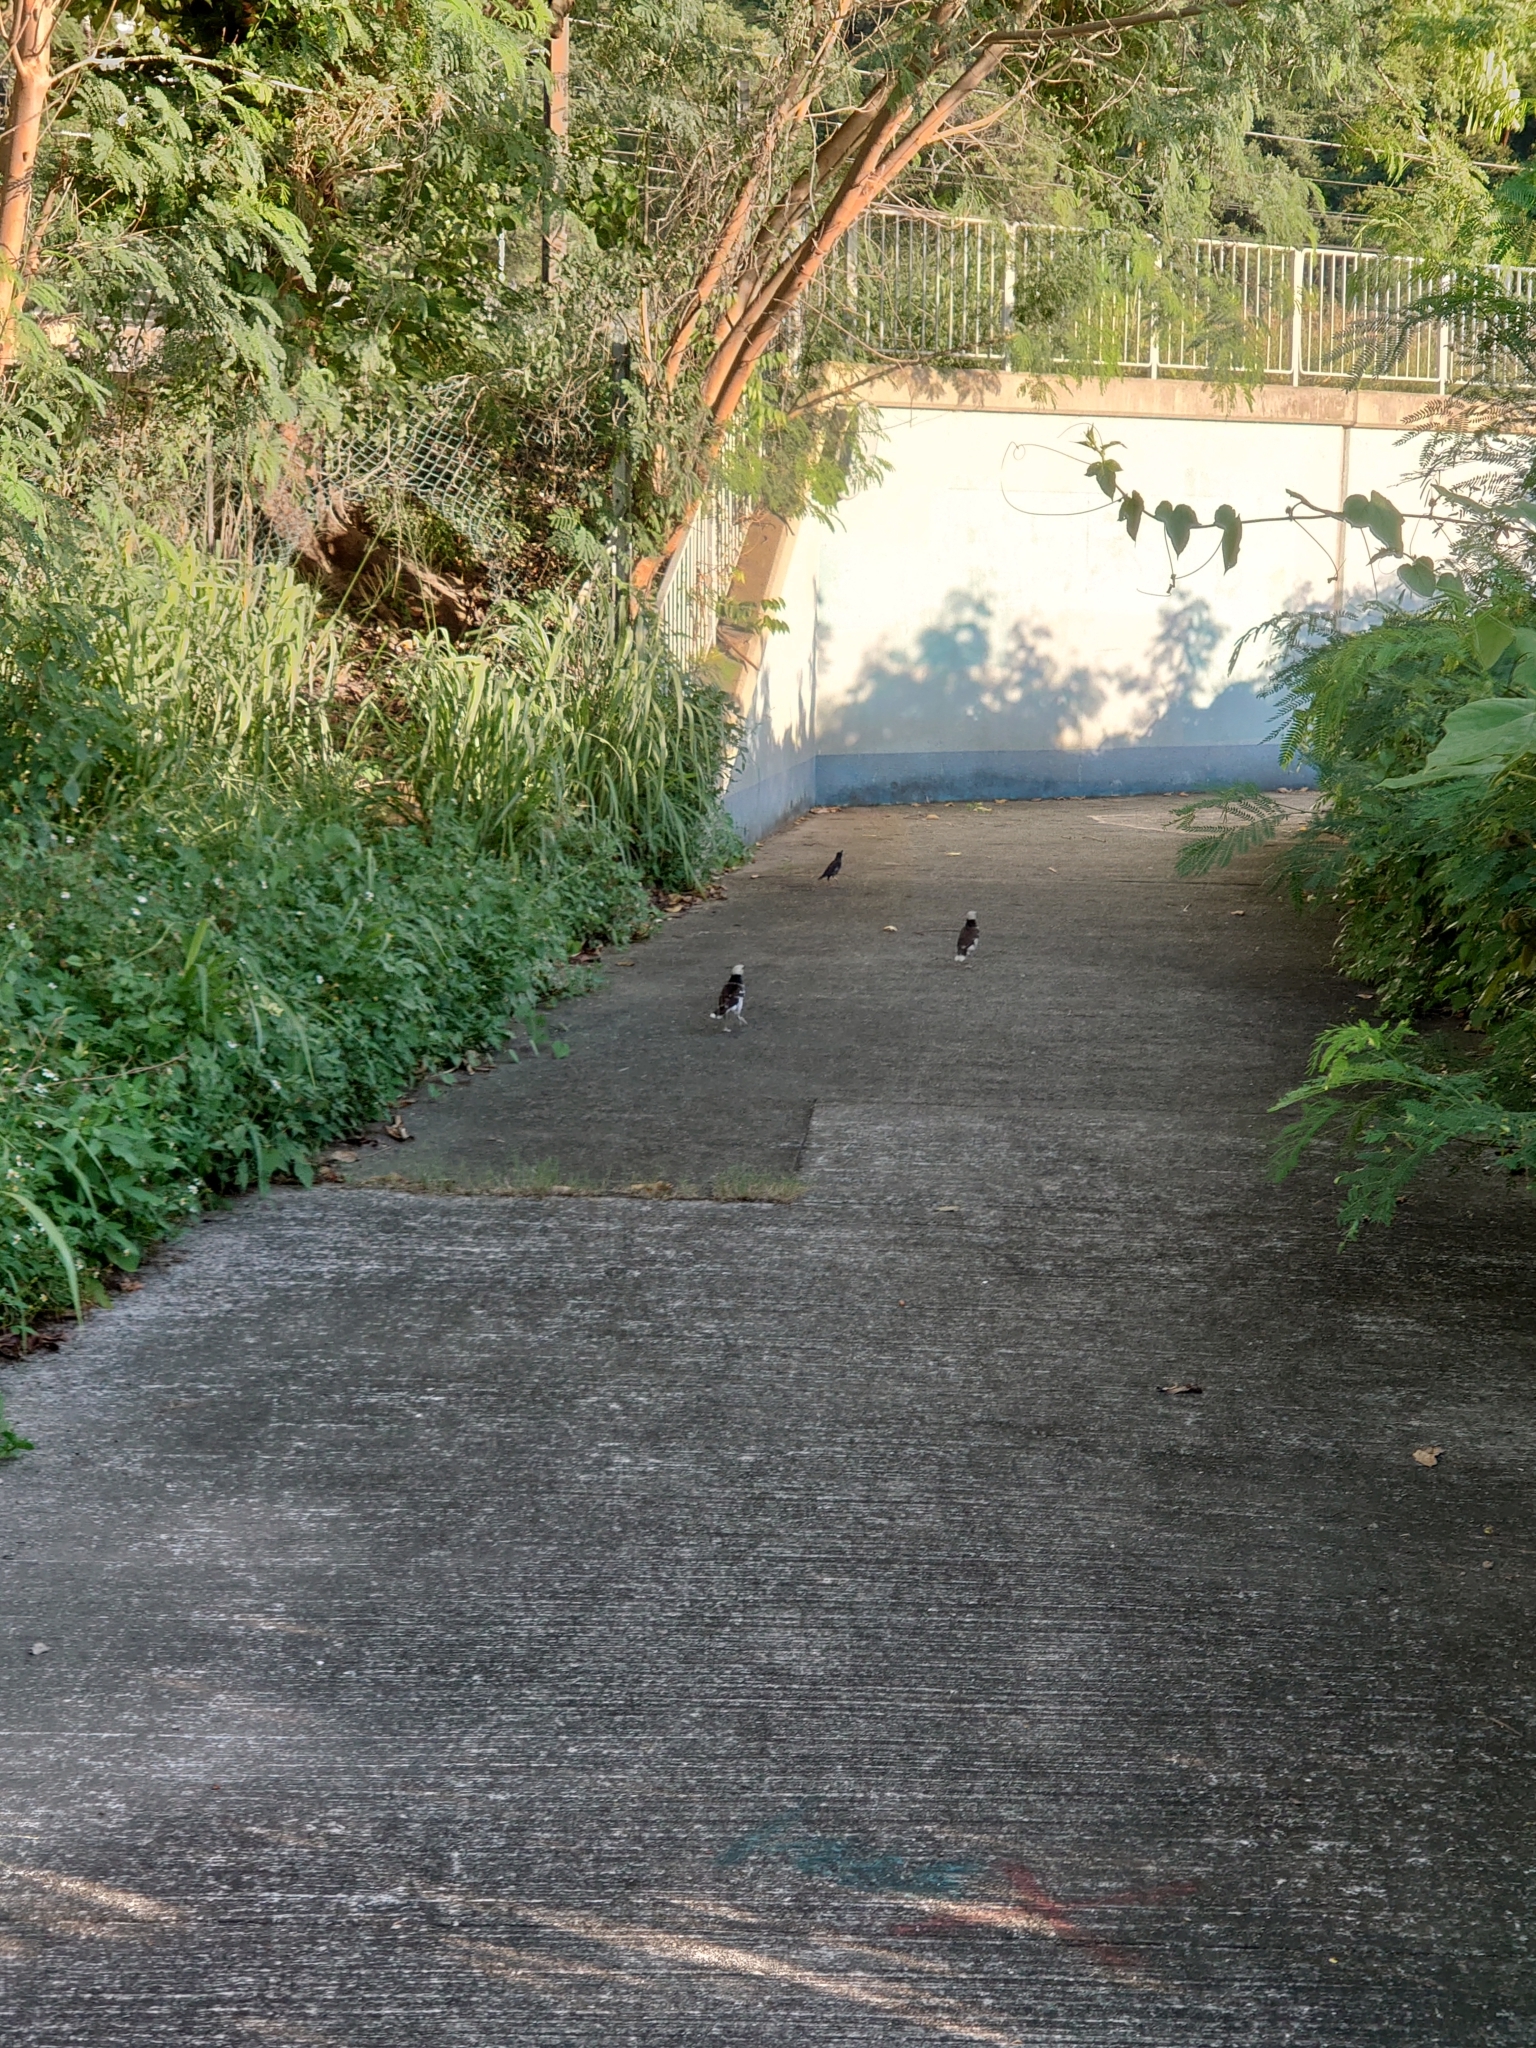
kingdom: Animalia
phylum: Chordata
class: Aves
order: Passeriformes
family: Sturnidae
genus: Acridotheres
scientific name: Acridotheres cristatellus
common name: Crested myna
